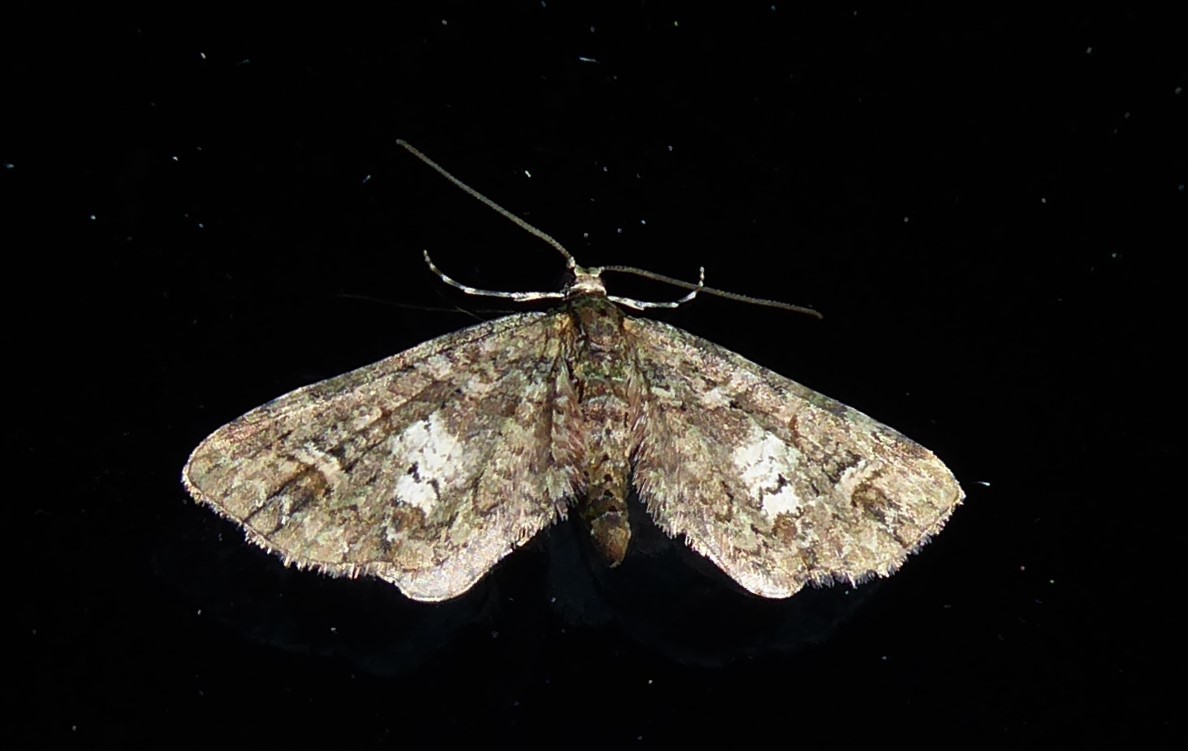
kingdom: Animalia
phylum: Arthropoda
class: Insecta
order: Lepidoptera
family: Geometridae
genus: Idaea
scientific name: Idaea mutanda
